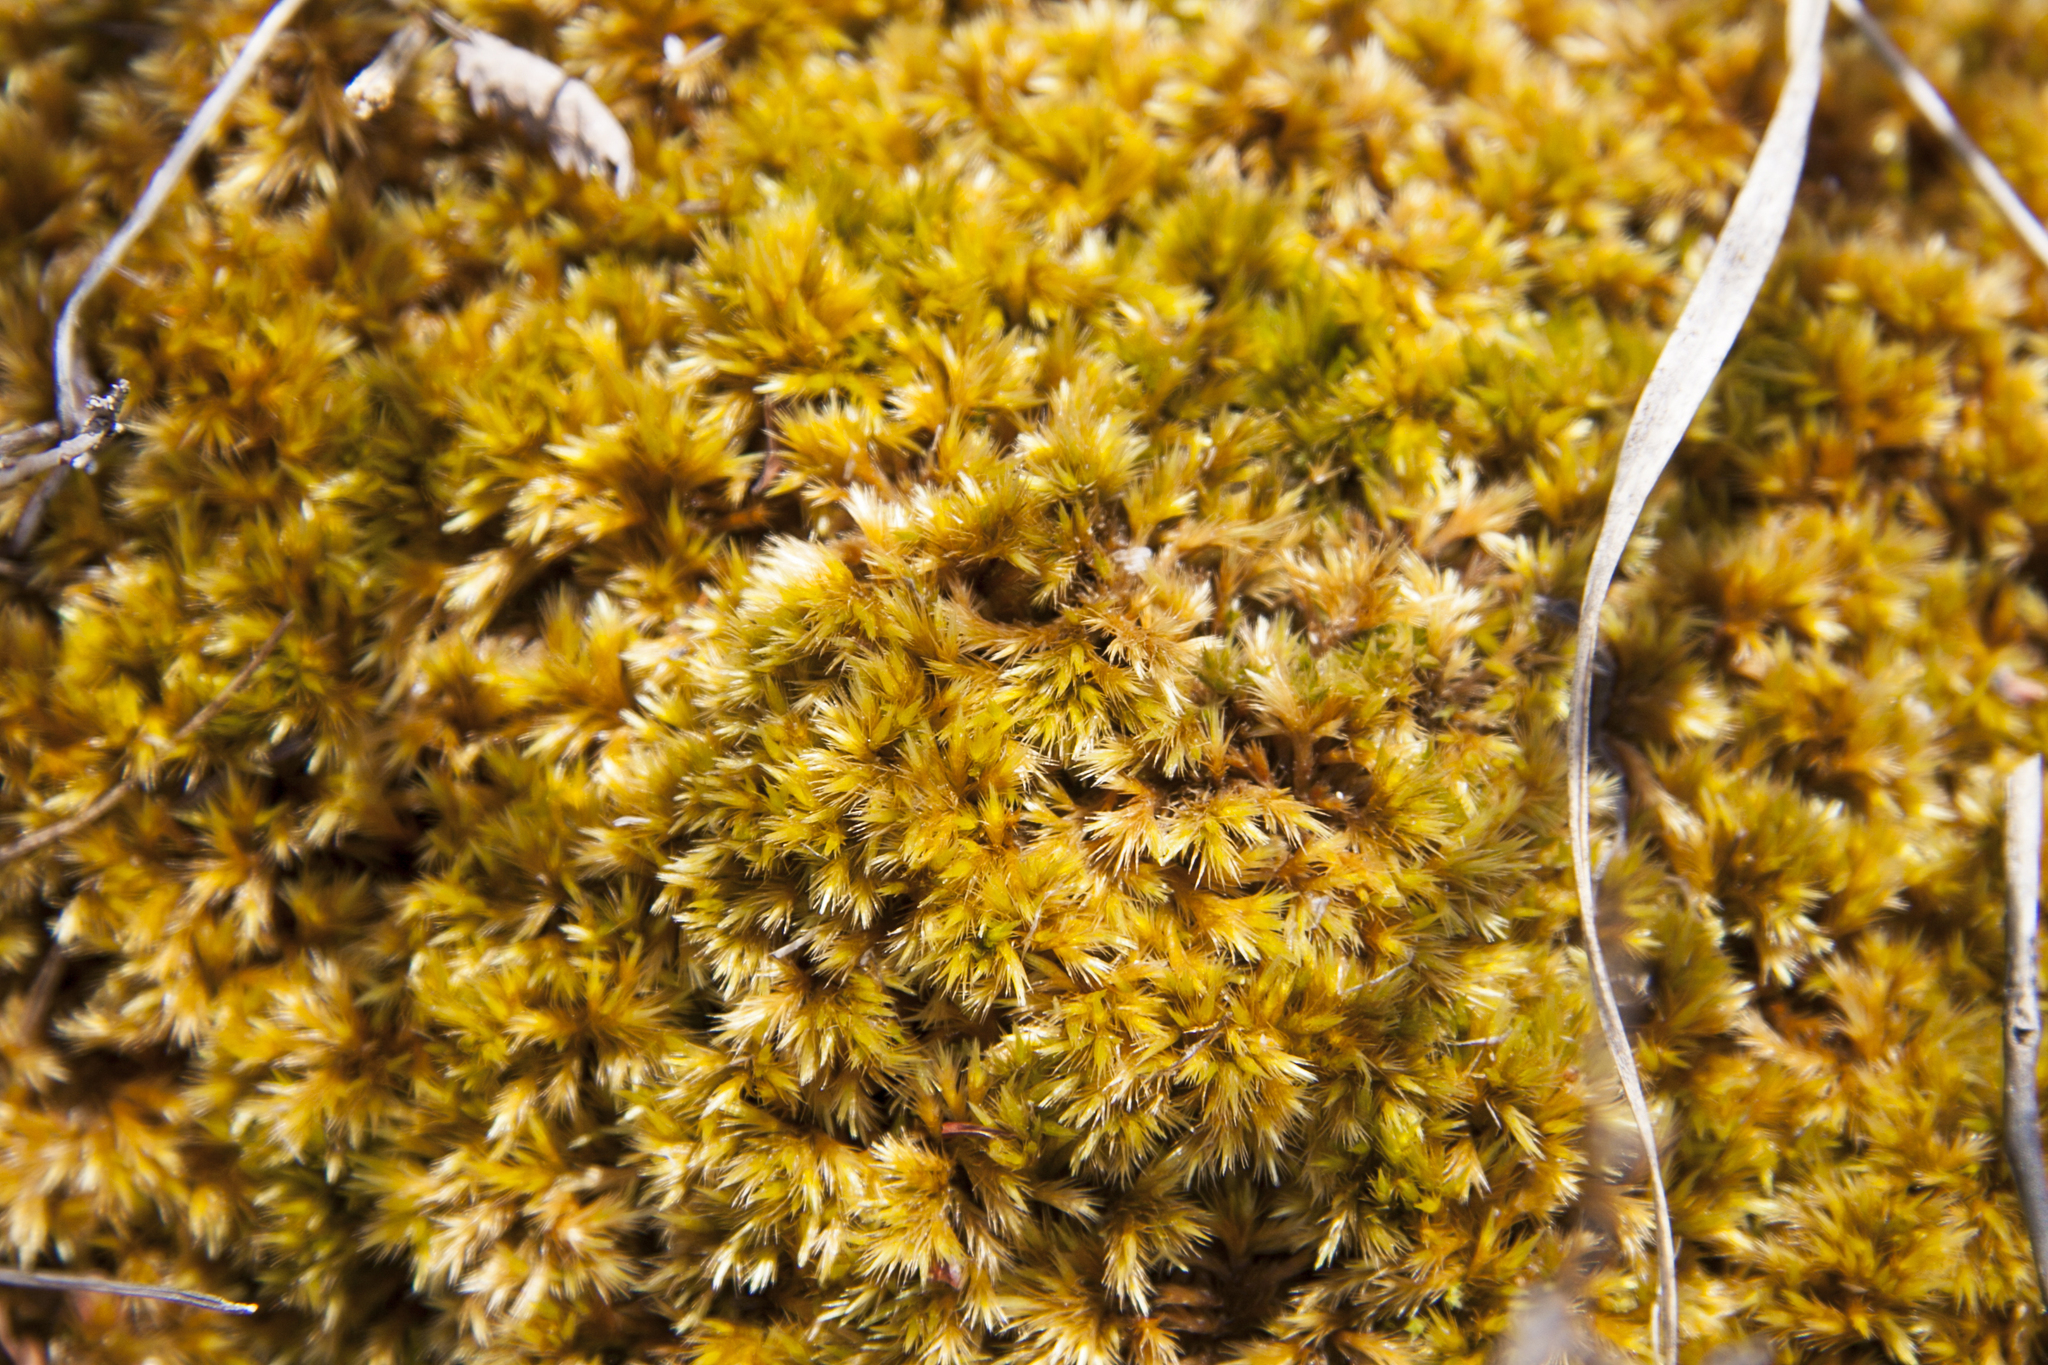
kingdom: Plantae
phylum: Bryophyta
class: Bryopsida
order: Aulacomniales
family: Aulacomniaceae
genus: Aulacomnium
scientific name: Aulacomnium palustre
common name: Bog groove-moss
